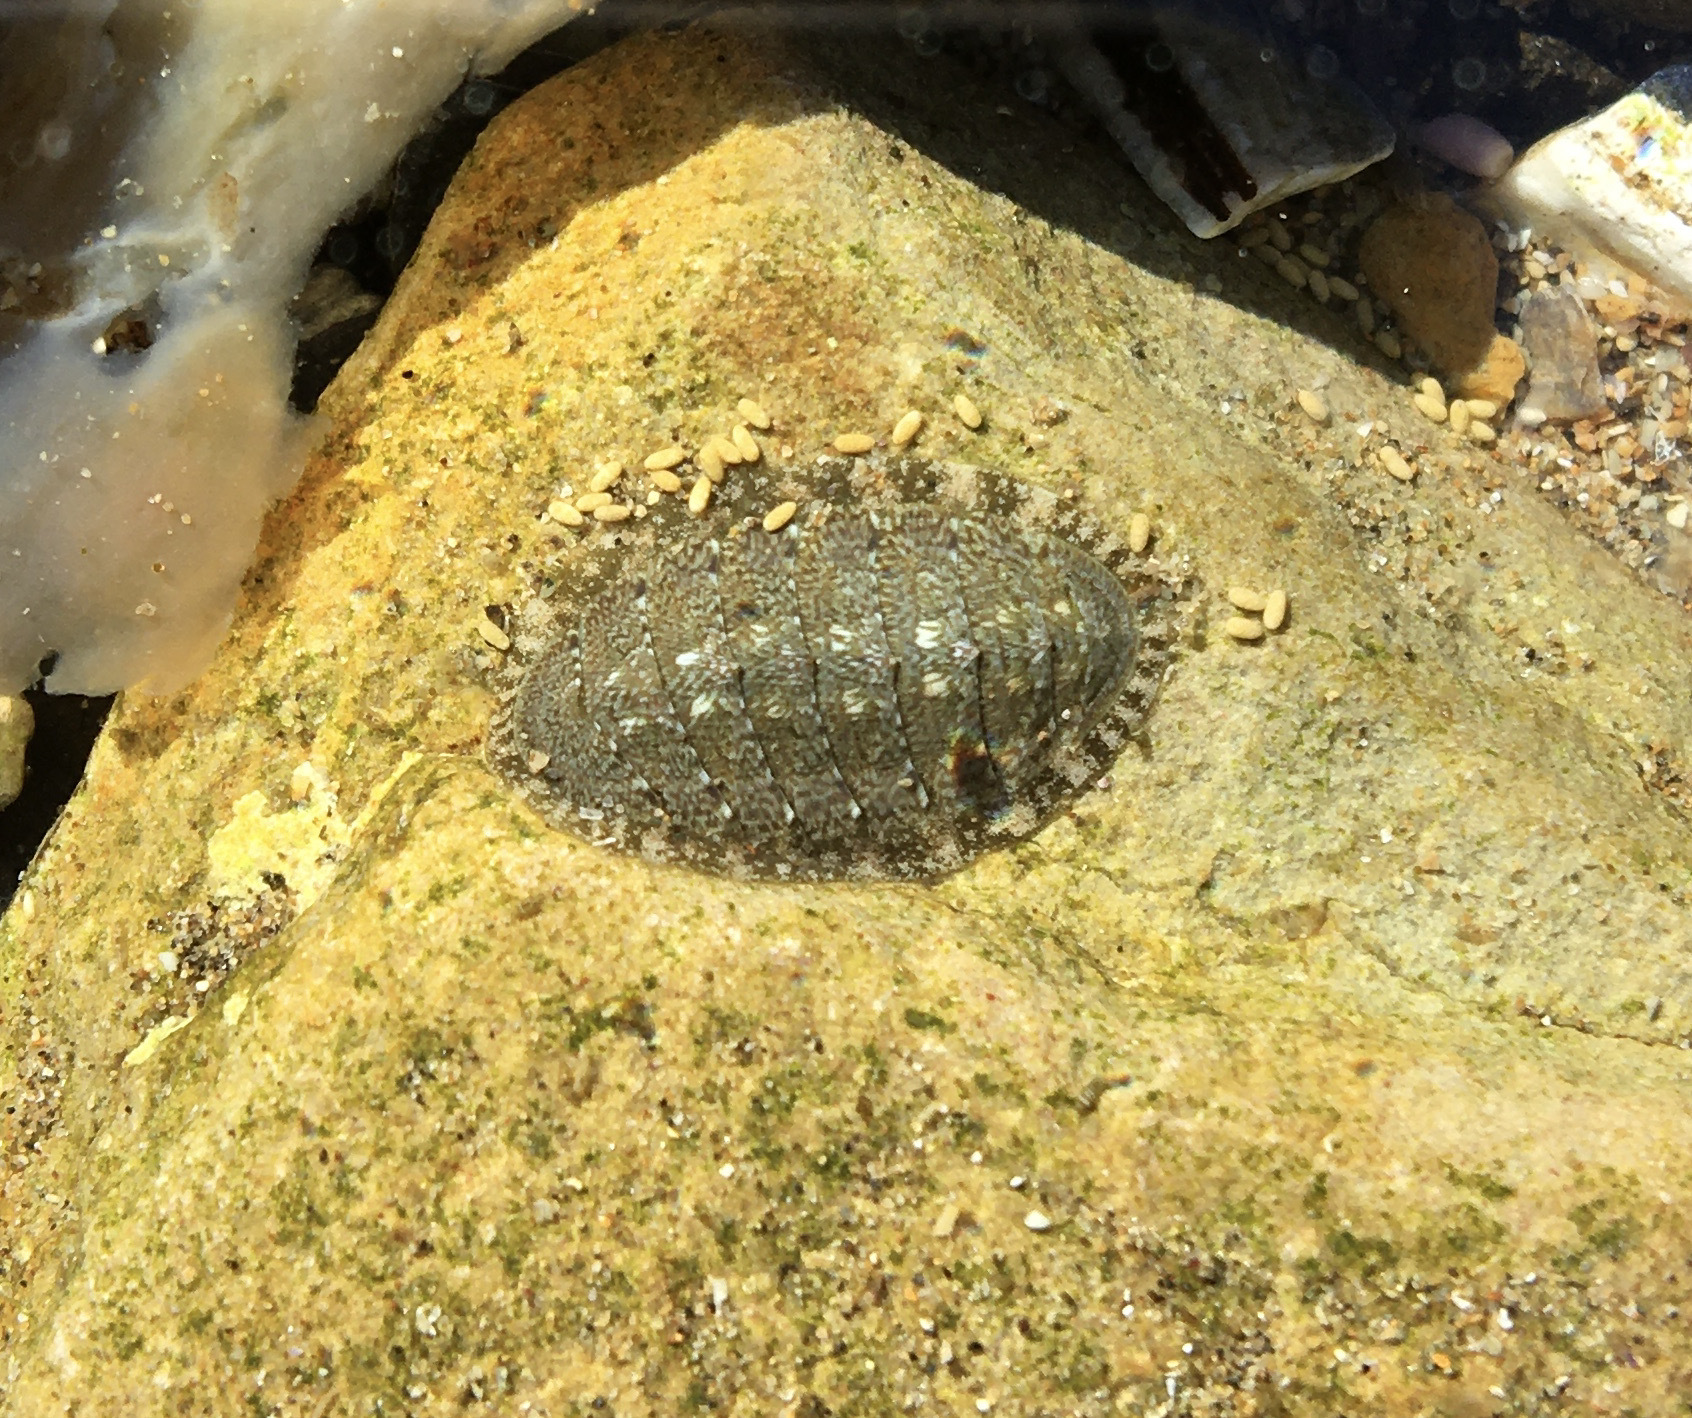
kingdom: Animalia
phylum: Mollusca
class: Polyplacophora
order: Chitonida
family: Tonicellidae
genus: Cyanoplax
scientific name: Cyanoplax keepiana
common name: Keep's chiton
